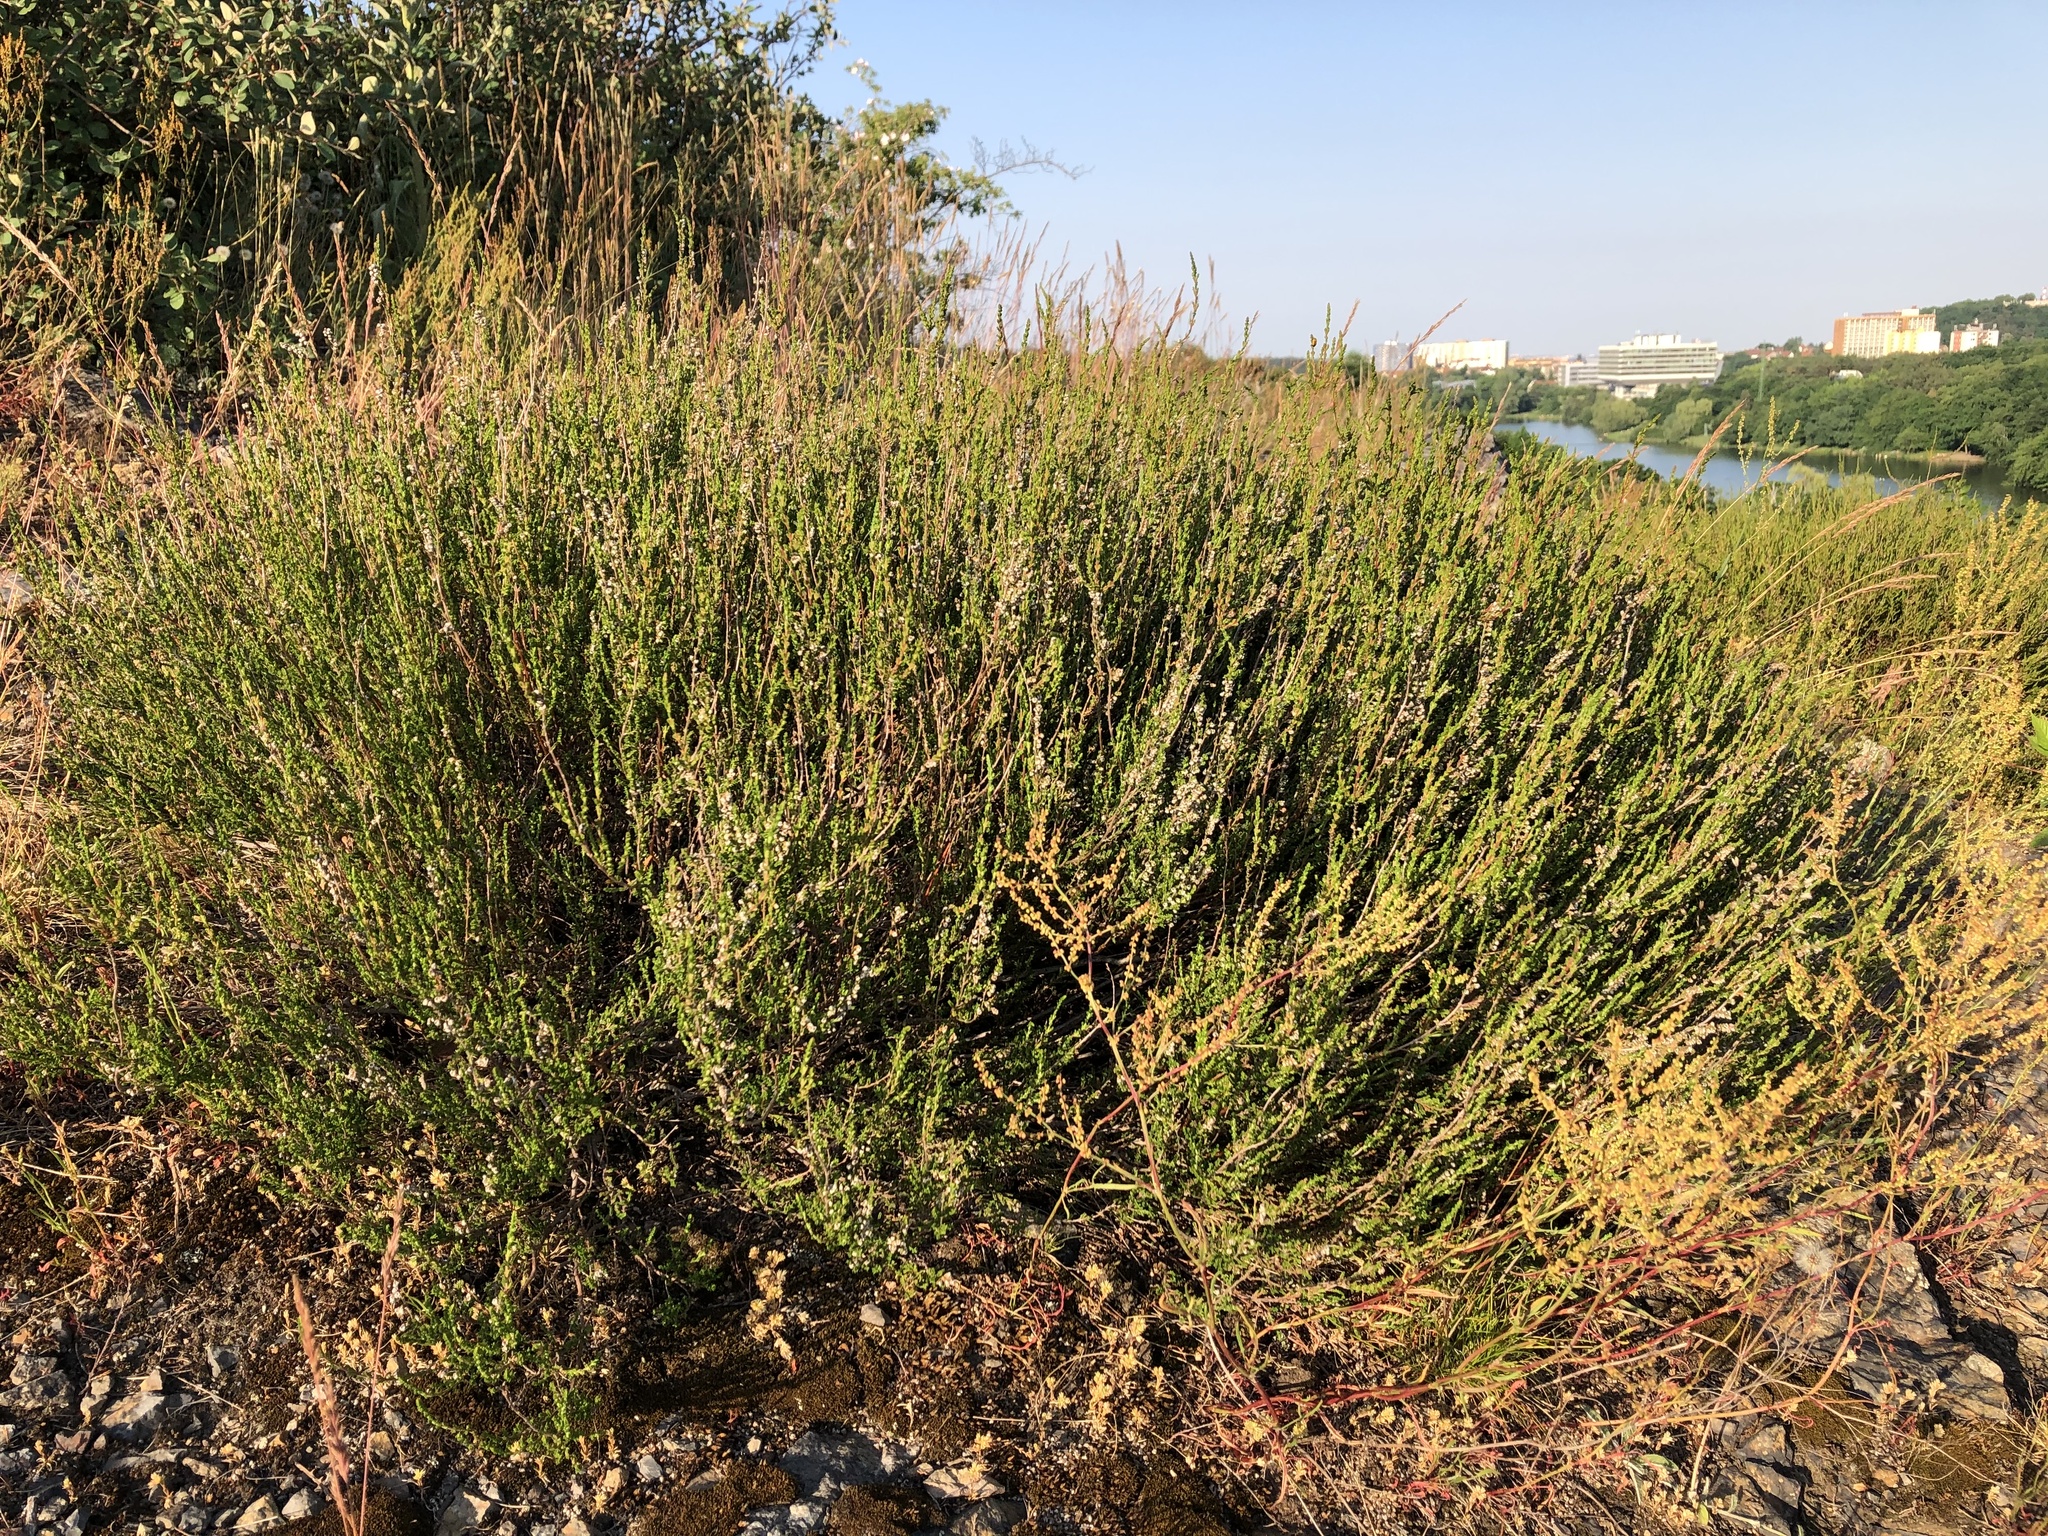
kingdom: Plantae
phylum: Tracheophyta
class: Magnoliopsida
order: Ericales
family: Ericaceae
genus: Calluna
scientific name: Calluna vulgaris
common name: Heather
